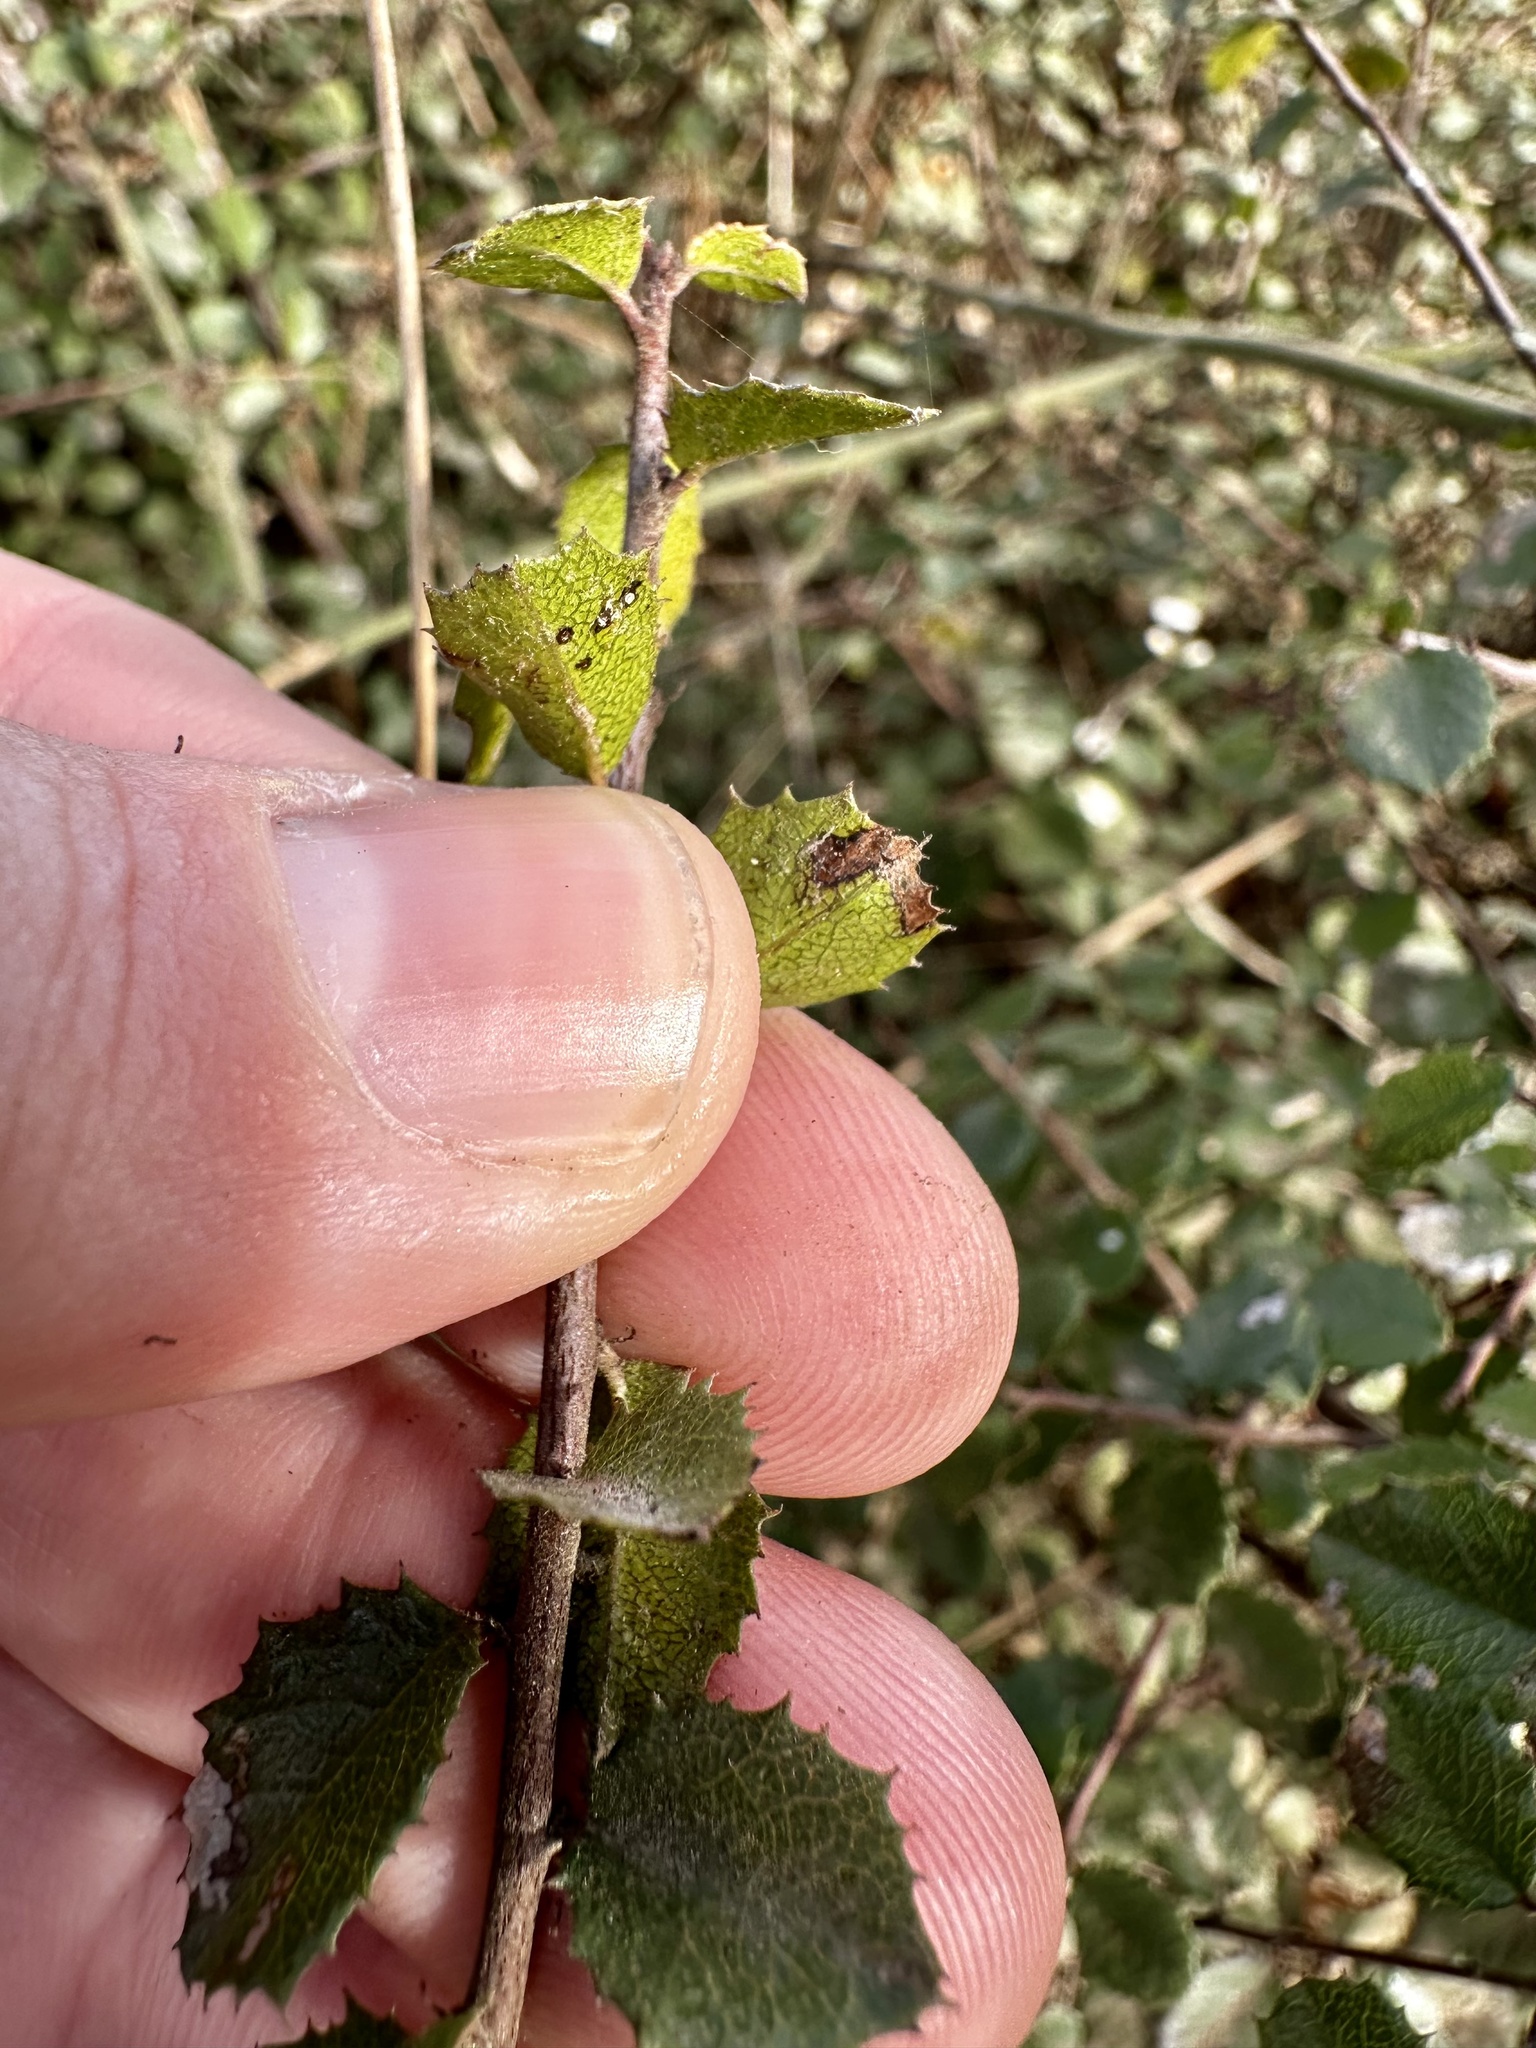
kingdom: Plantae
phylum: Tracheophyta
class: Magnoliopsida
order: Rosales
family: Rhamnaceae
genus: Endotropis
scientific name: Endotropis crocea
